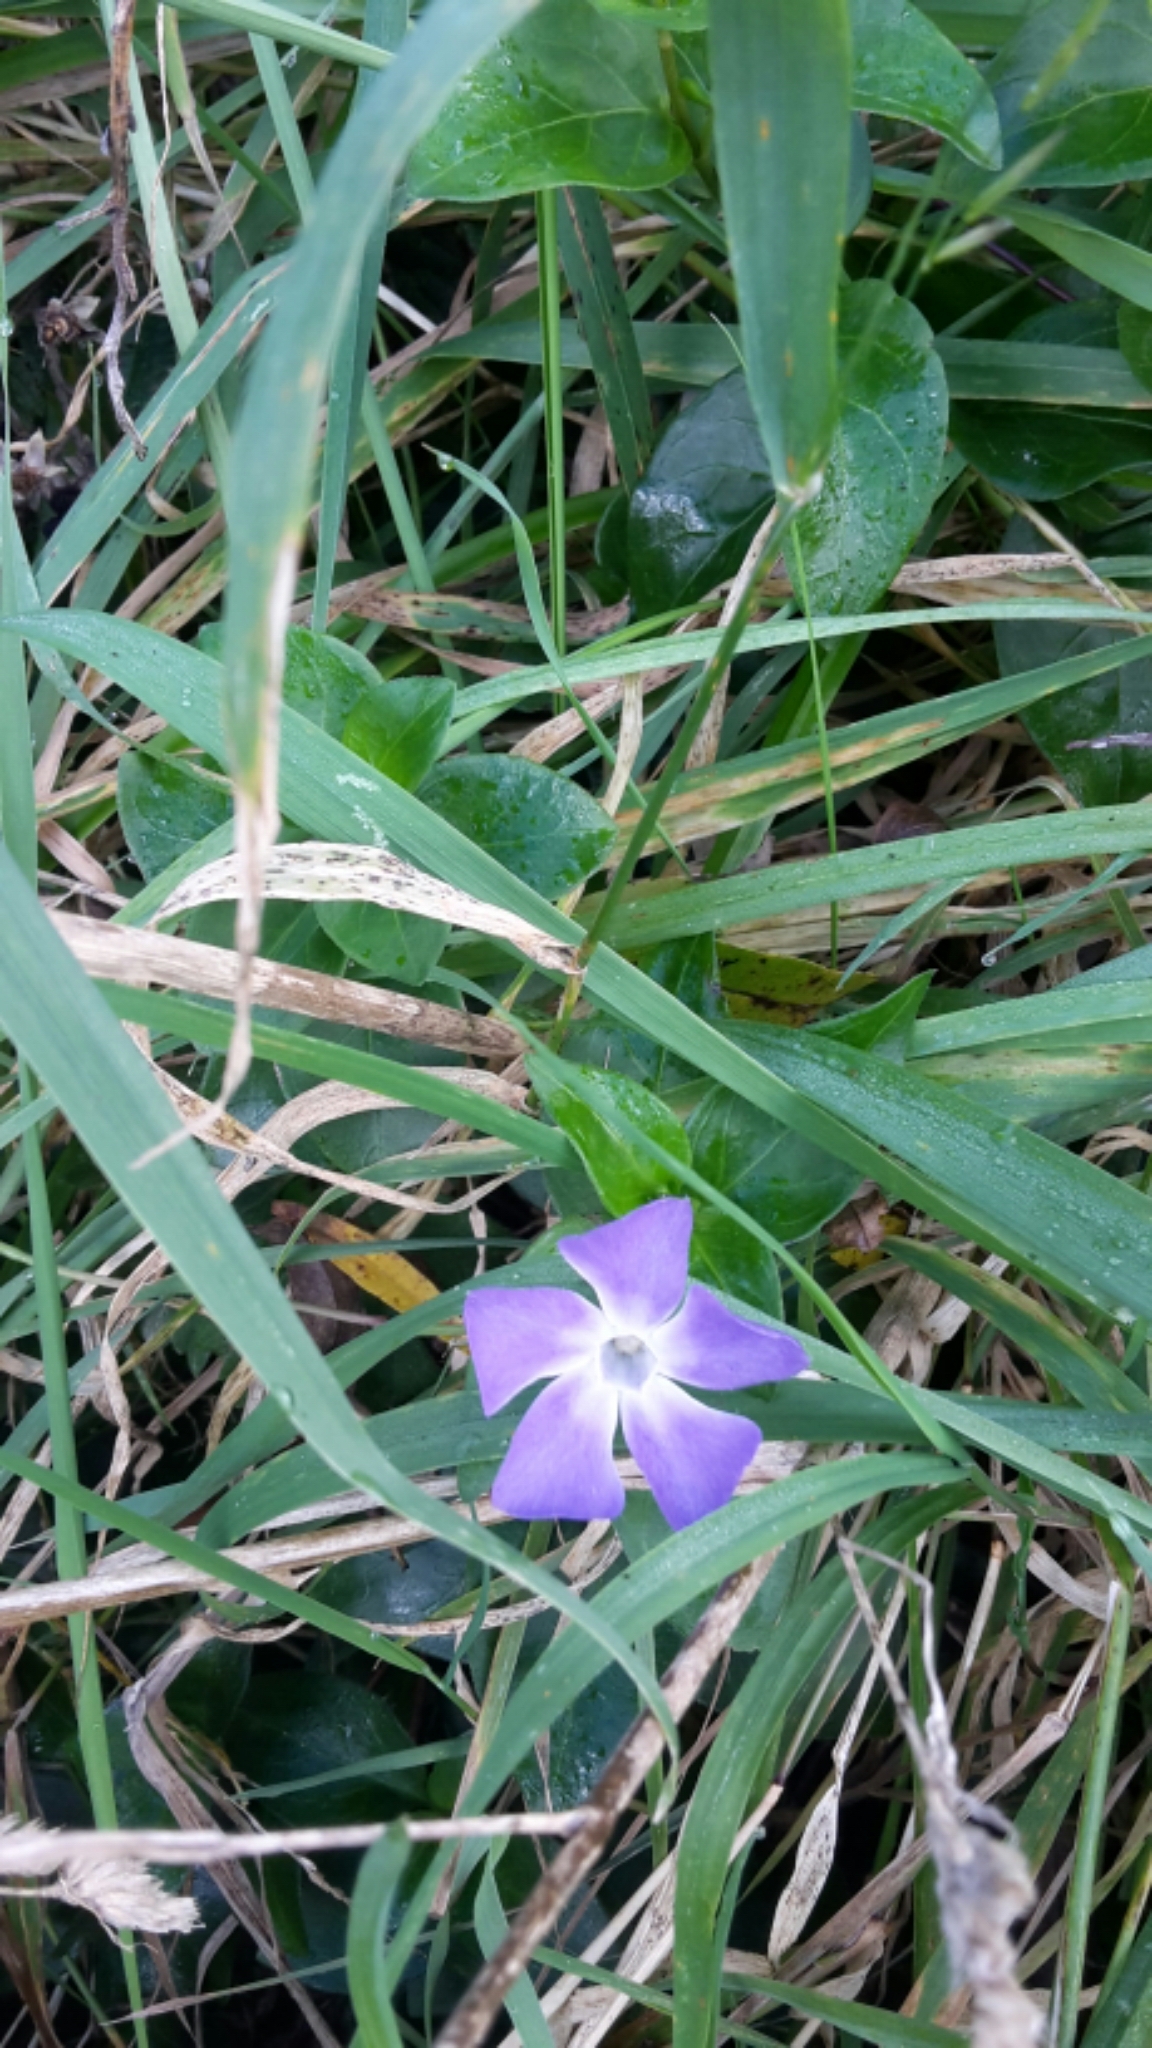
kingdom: Plantae
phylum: Tracheophyta
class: Magnoliopsida
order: Gentianales
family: Apocynaceae
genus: Vinca
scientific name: Vinca major
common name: Greater periwinkle
